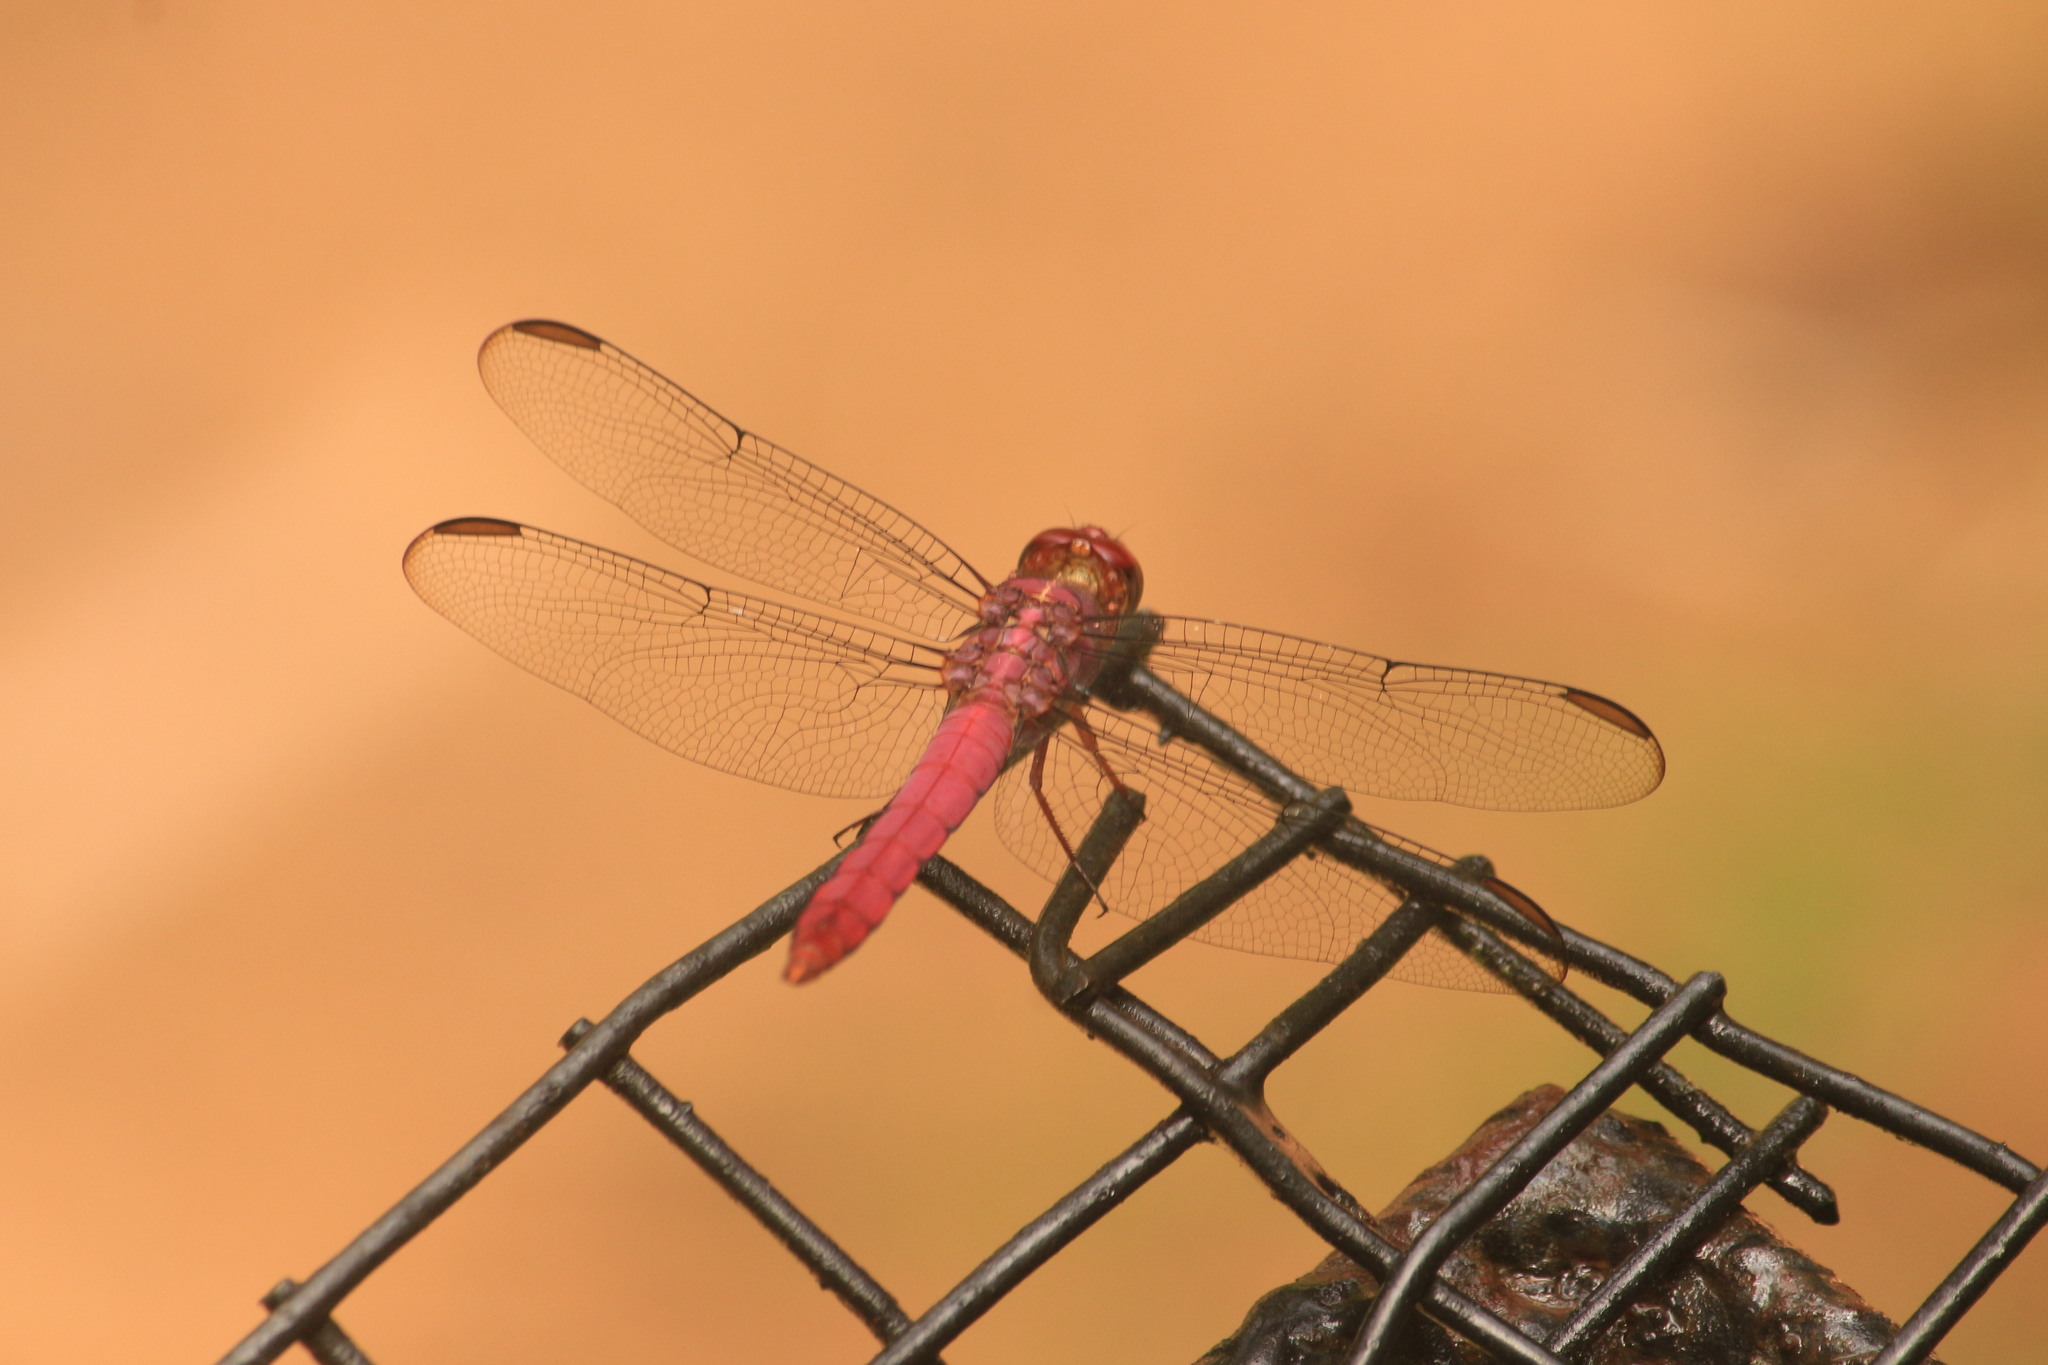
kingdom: Animalia
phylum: Arthropoda
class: Insecta
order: Odonata
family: Libellulidae
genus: Orthemis
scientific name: Orthemis discolor
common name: Carmine skimmer
